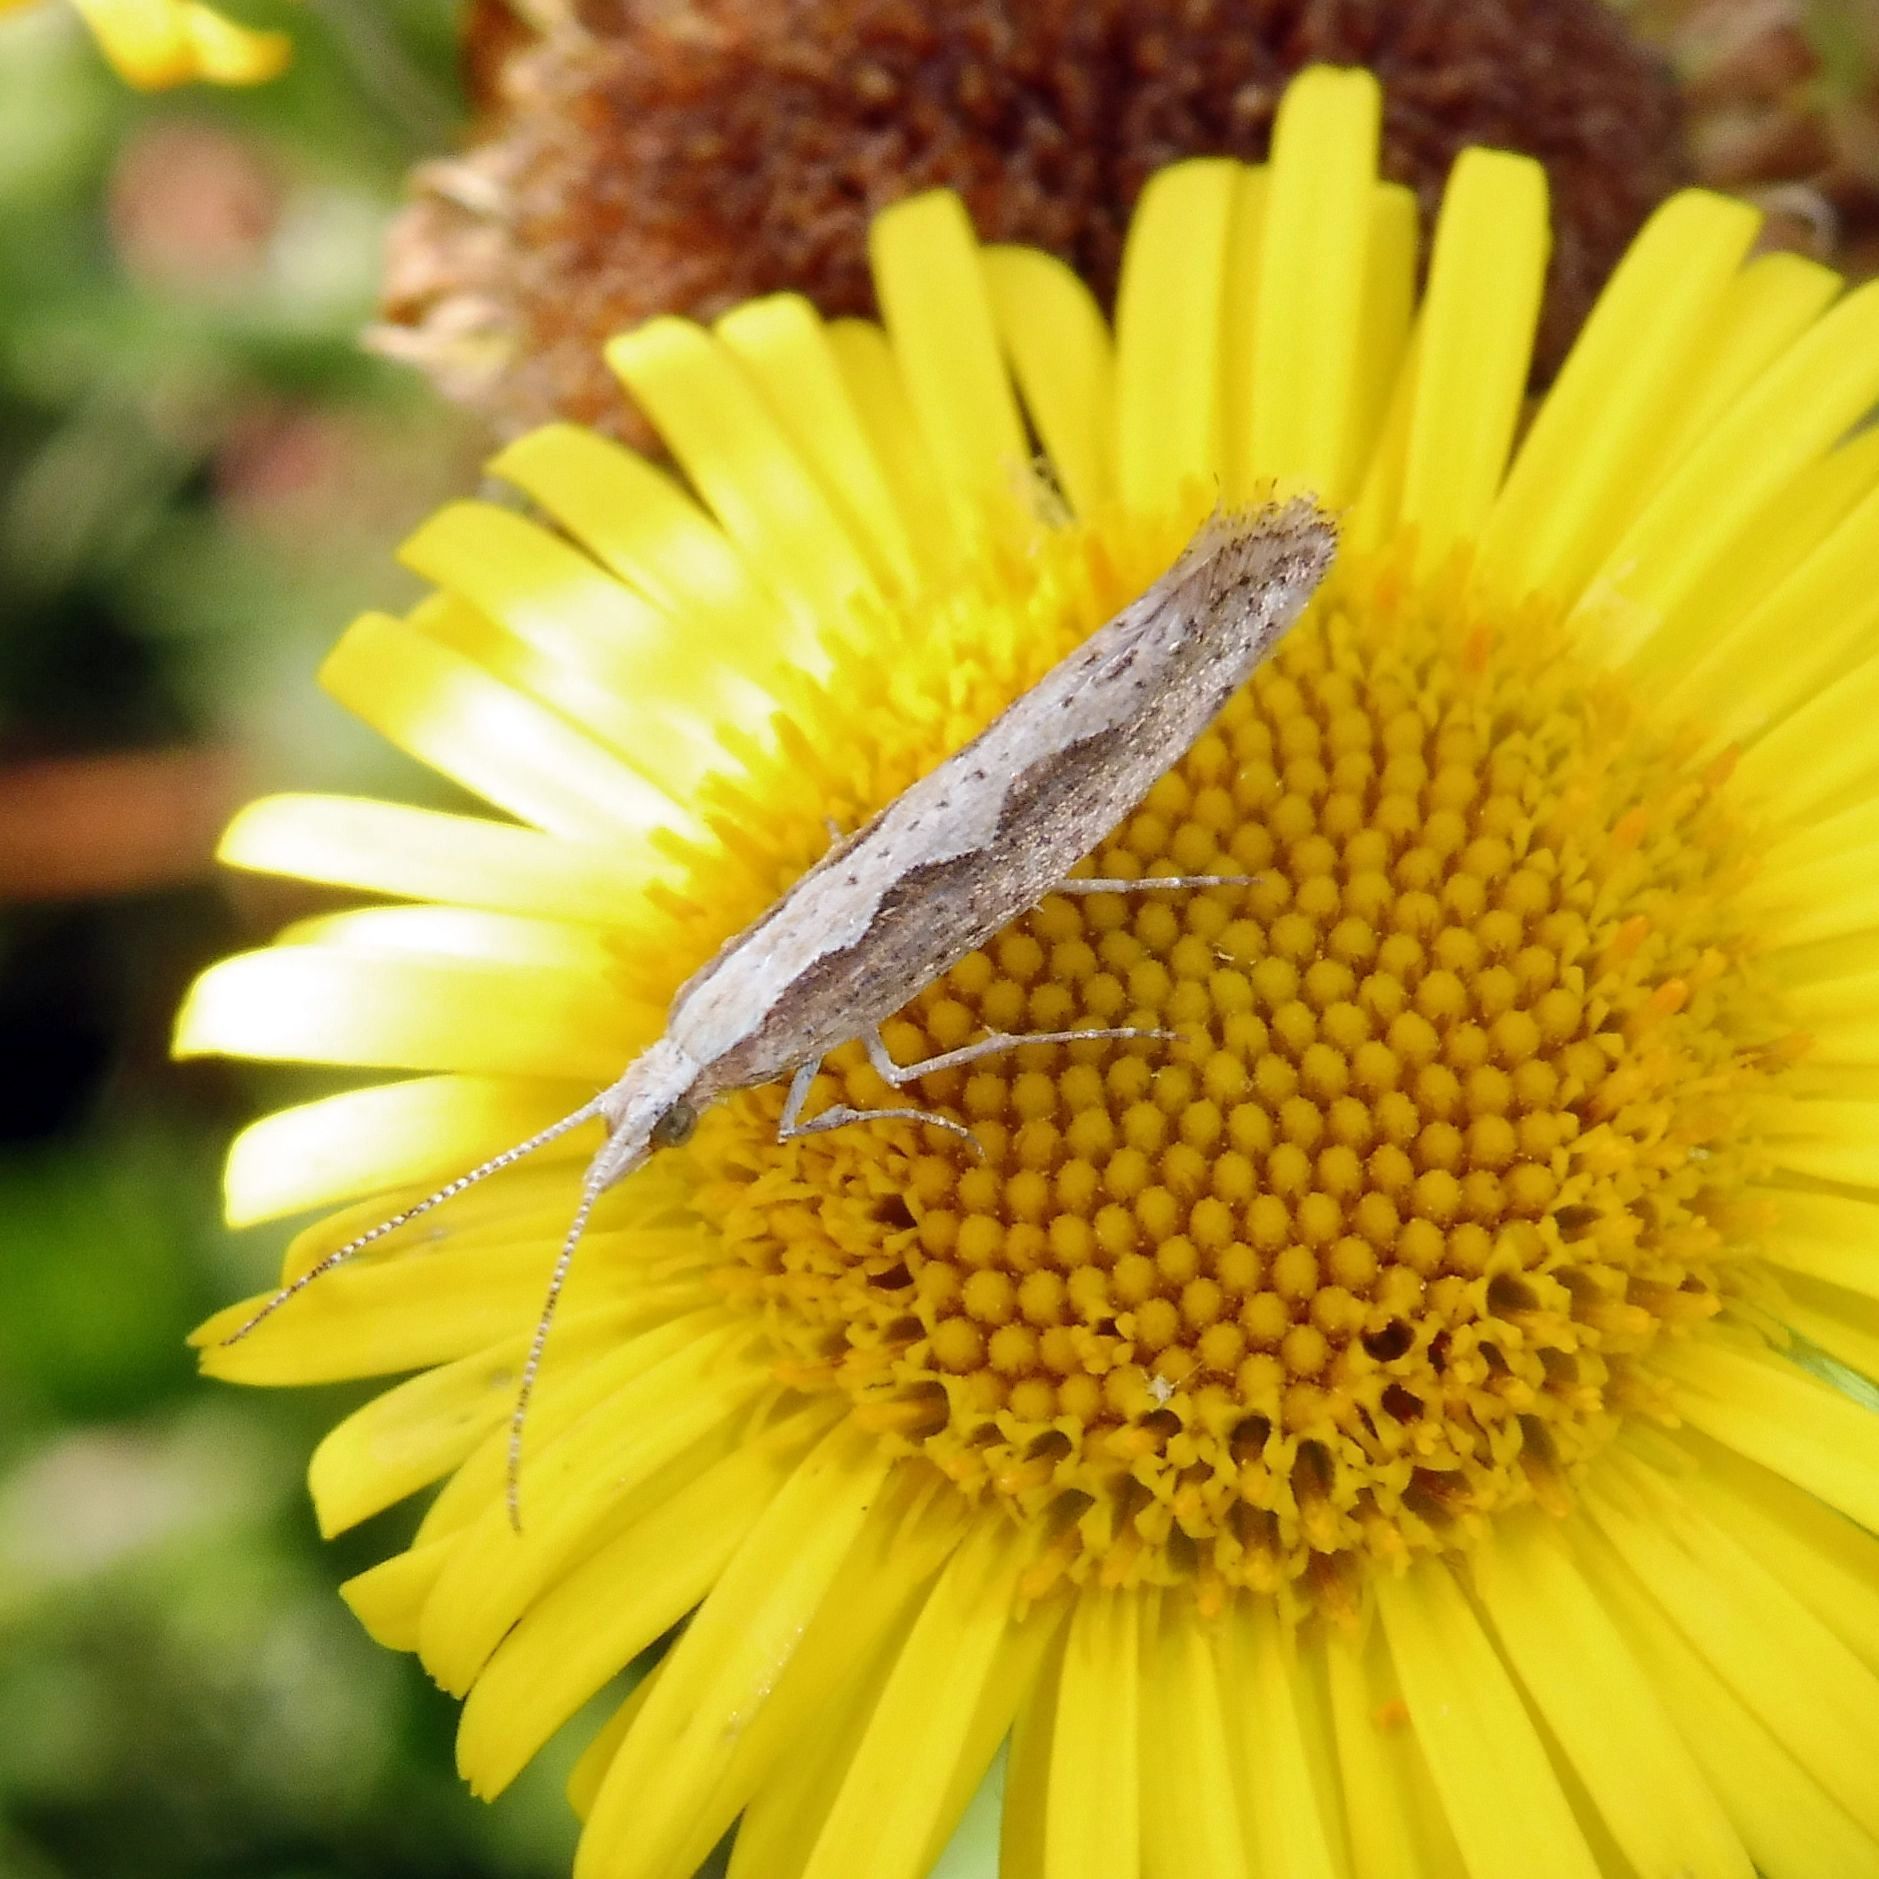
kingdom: Animalia
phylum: Arthropoda
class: Insecta
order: Lepidoptera
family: Plutellidae
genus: Plutella
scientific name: Plutella xylostella
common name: Diamond-back moth
